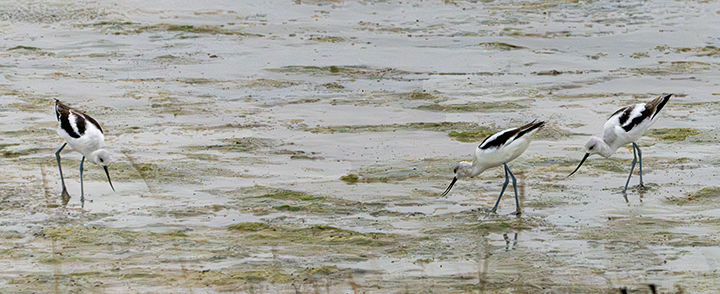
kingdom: Animalia
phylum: Chordata
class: Aves
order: Charadriiformes
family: Recurvirostridae
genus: Recurvirostra
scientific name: Recurvirostra americana
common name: American avocet
